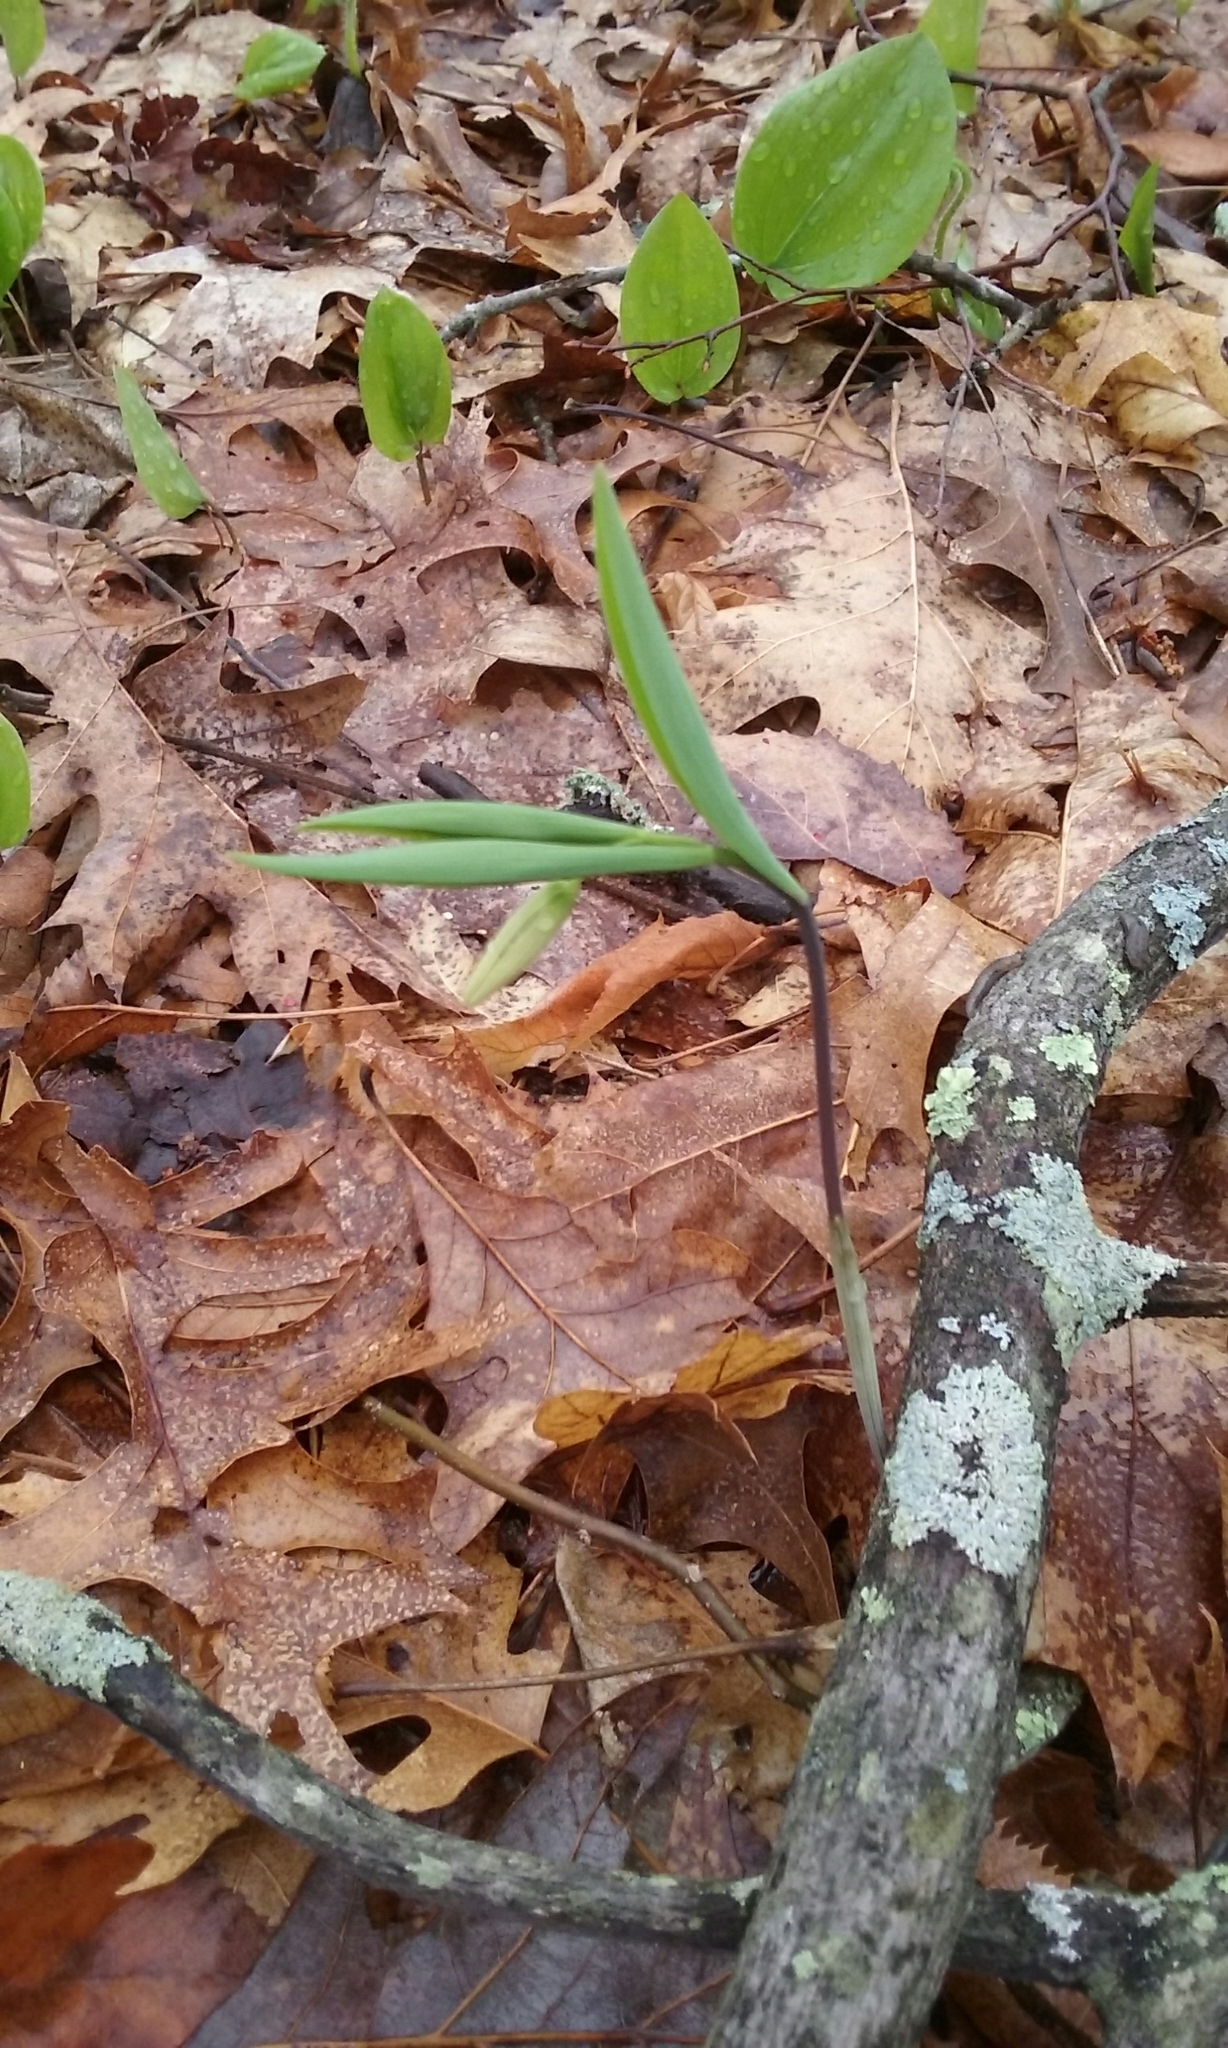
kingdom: Plantae
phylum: Tracheophyta
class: Liliopsida
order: Liliales
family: Colchicaceae
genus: Uvularia
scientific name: Uvularia sessilifolia
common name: Straw-lily
